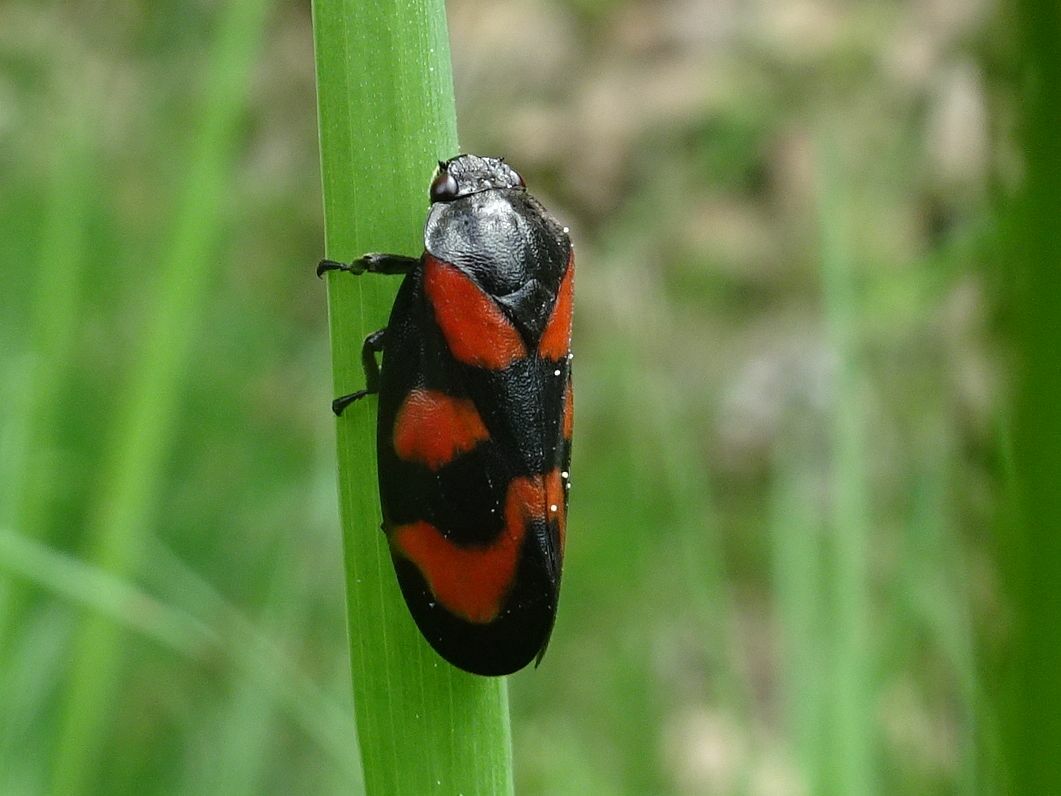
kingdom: Animalia
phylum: Arthropoda
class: Insecta
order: Hemiptera
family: Cercopidae
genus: Cercopis
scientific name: Cercopis vulnerata
